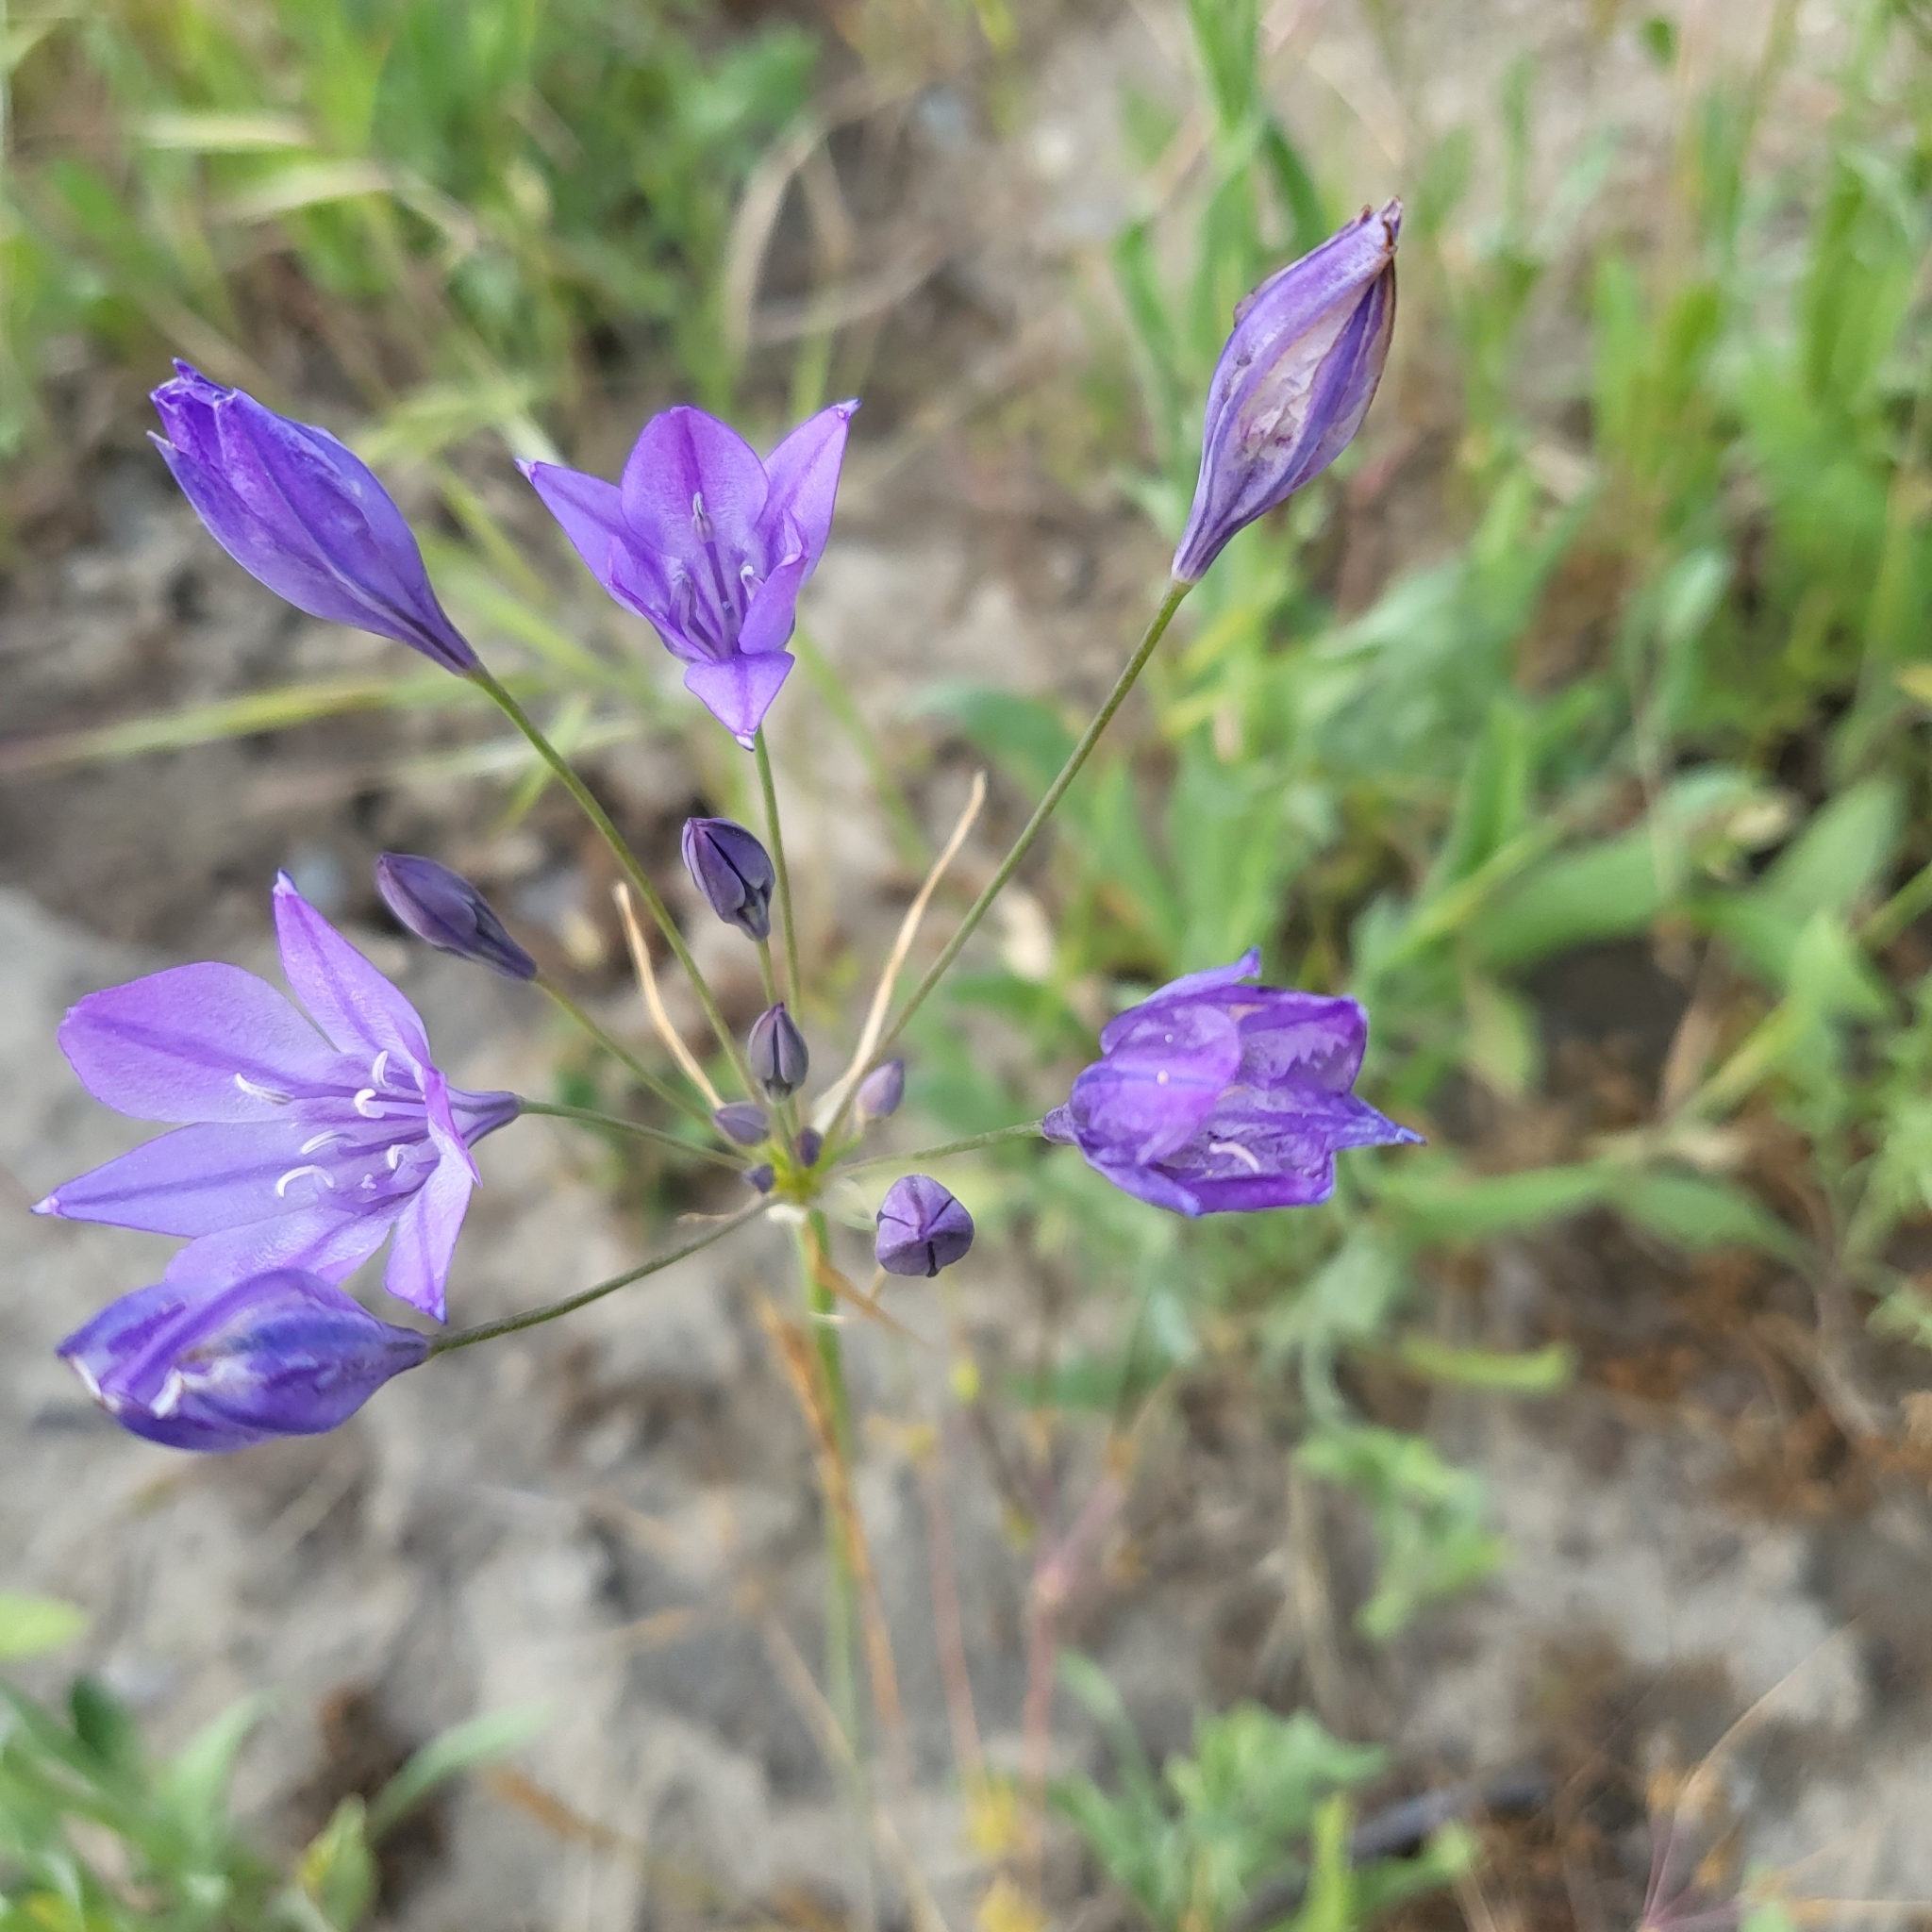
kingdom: Plantae
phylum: Tracheophyta
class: Liliopsida
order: Asparagales
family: Asparagaceae
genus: Triteleia
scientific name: Triteleia laxa
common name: Triplet-lily
